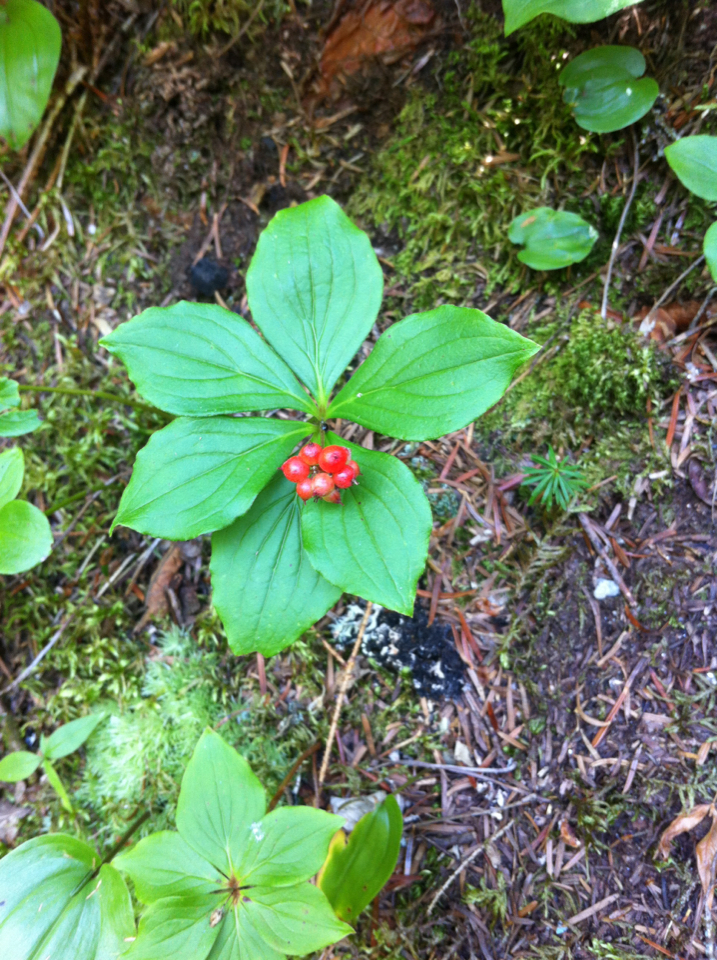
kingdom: Plantae
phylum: Tracheophyta
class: Magnoliopsida
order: Cornales
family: Cornaceae
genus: Cornus
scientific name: Cornus canadensis
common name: Creeping dogwood
